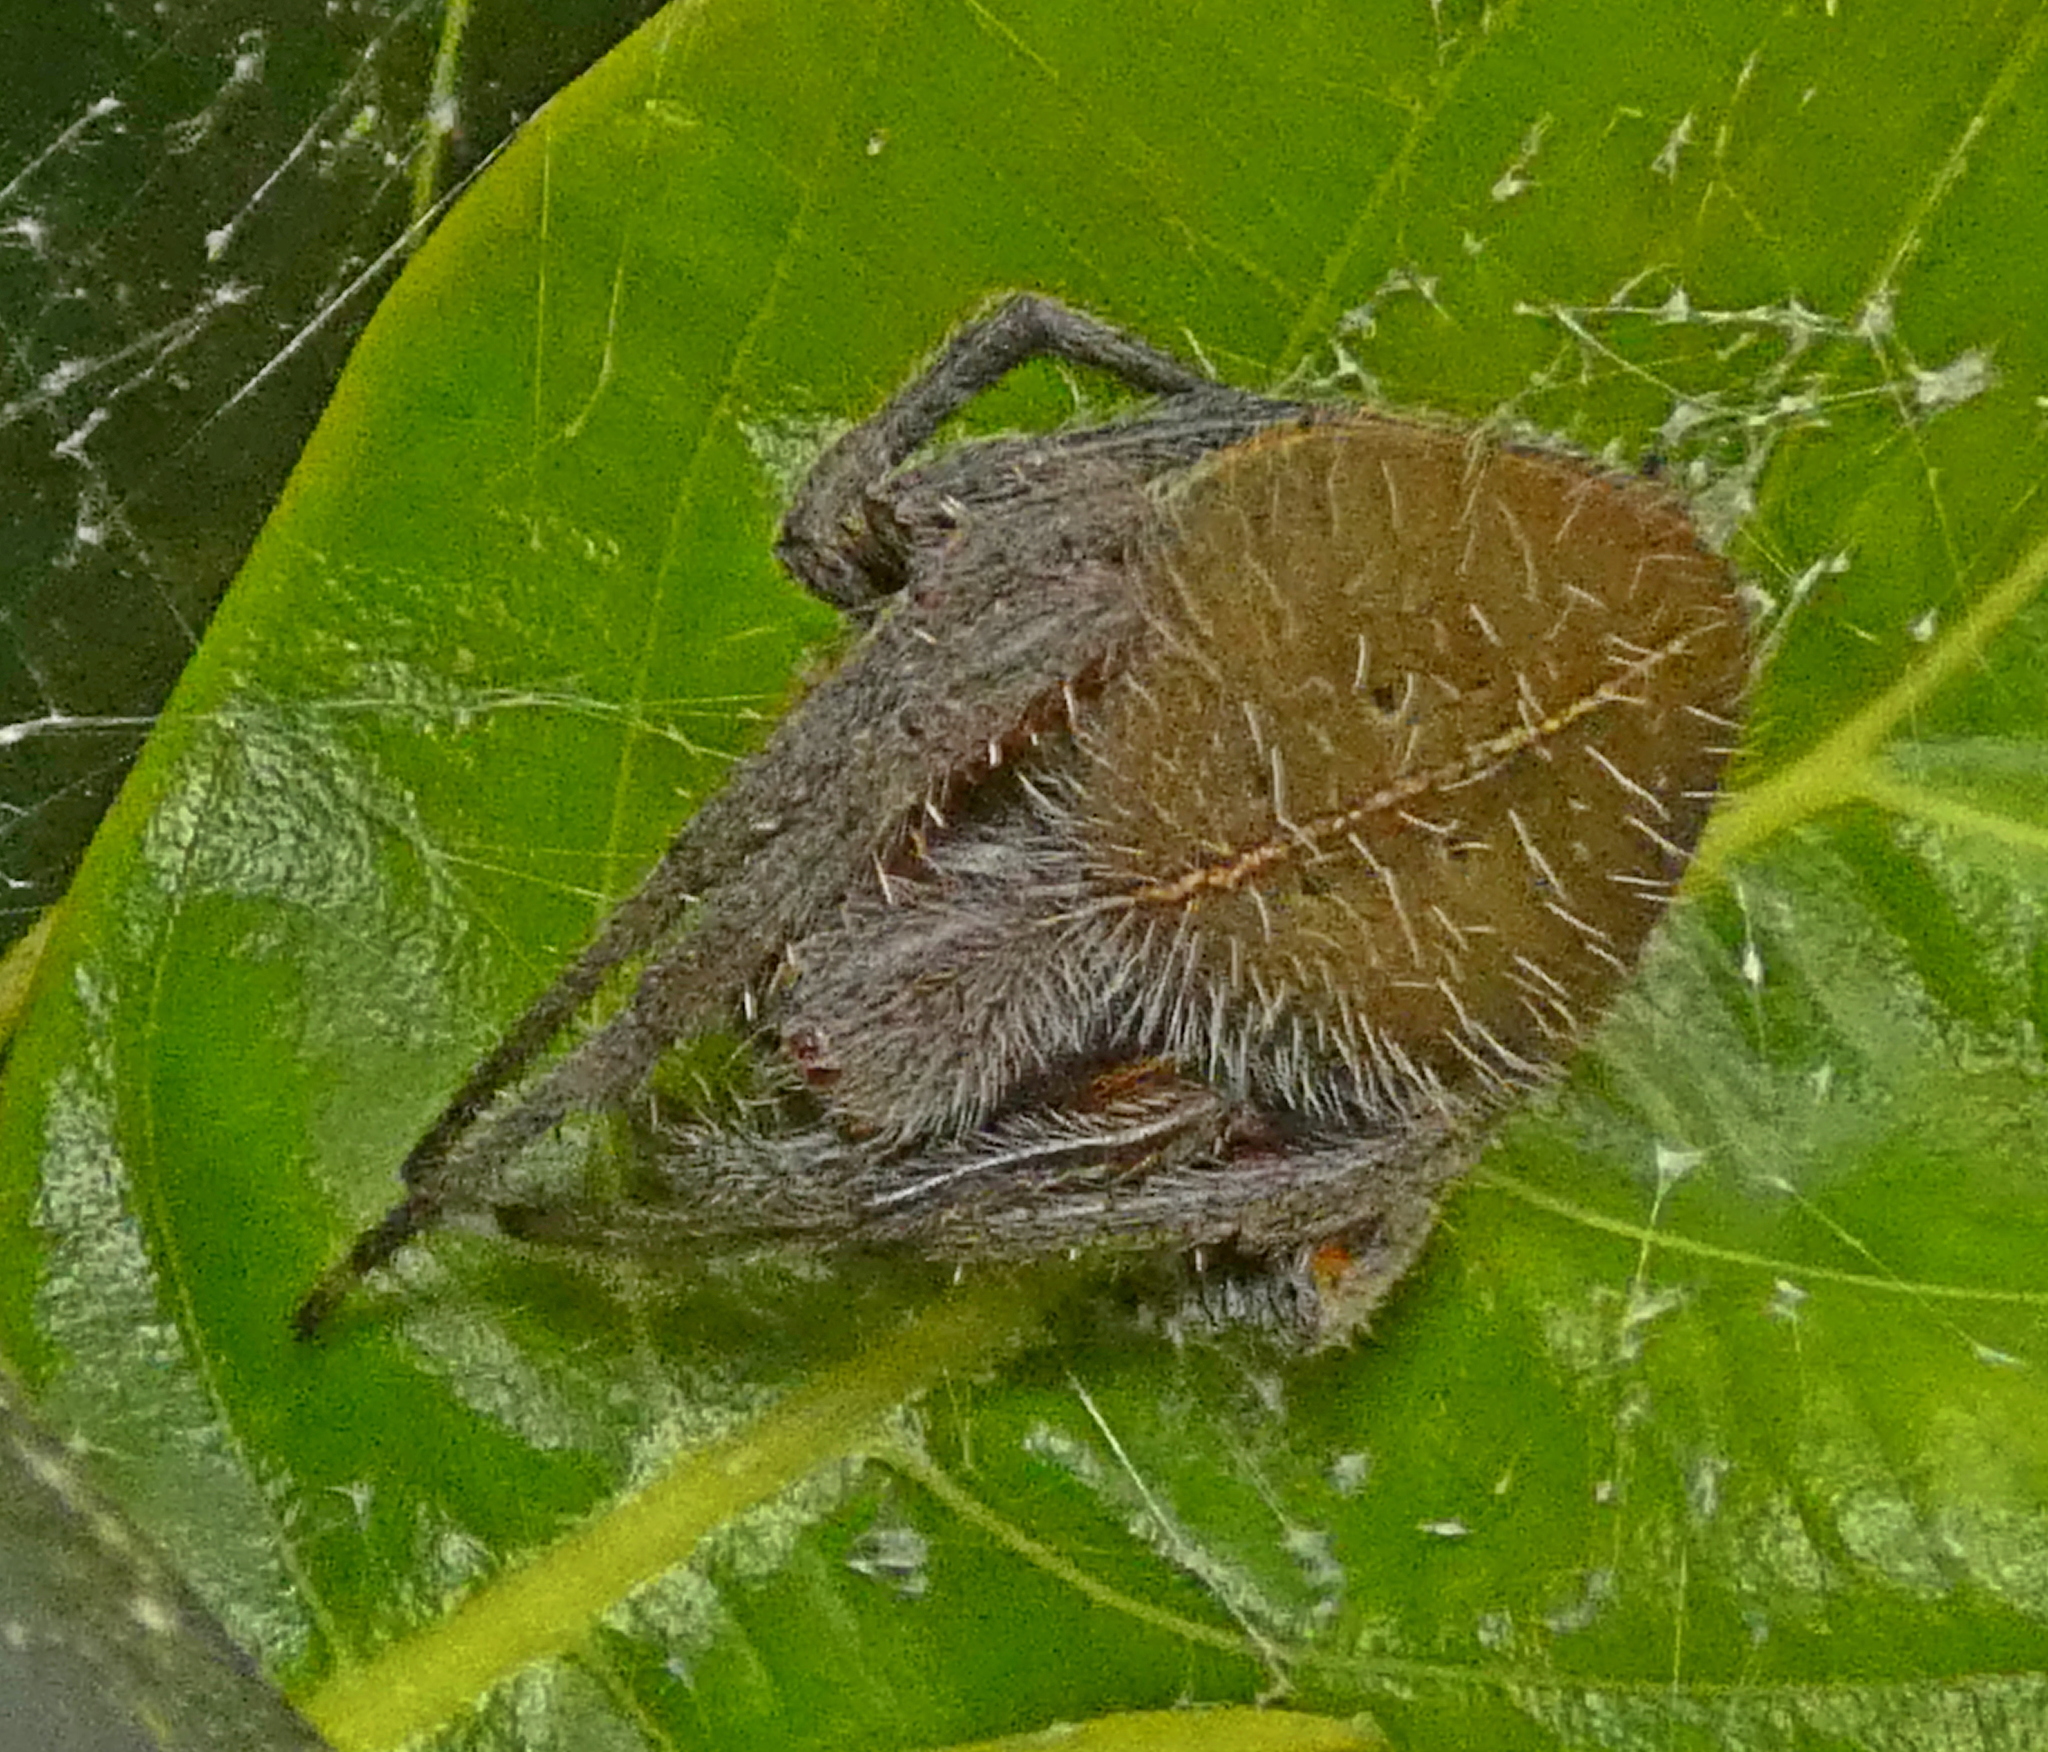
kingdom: Animalia
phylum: Arthropoda
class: Arachnida
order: Araneae
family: Araneidae
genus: Eriophora
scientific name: Eriophora fuliginea
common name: Orb weavers
